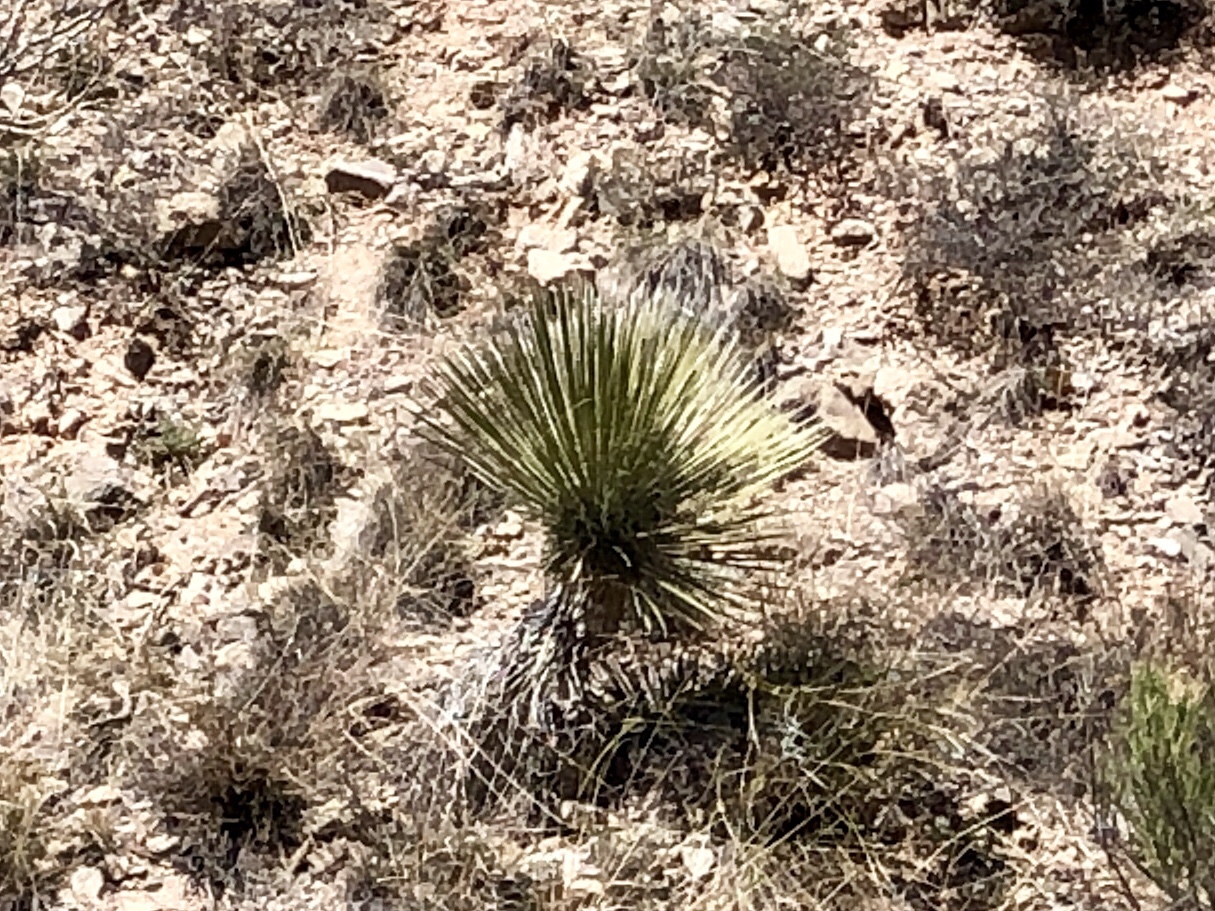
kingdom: Plantae
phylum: Tracheophyta
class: Liliopsida
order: Asparagales
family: Asparagaceae
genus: Yucca
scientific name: Yucca elata
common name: Palmella
